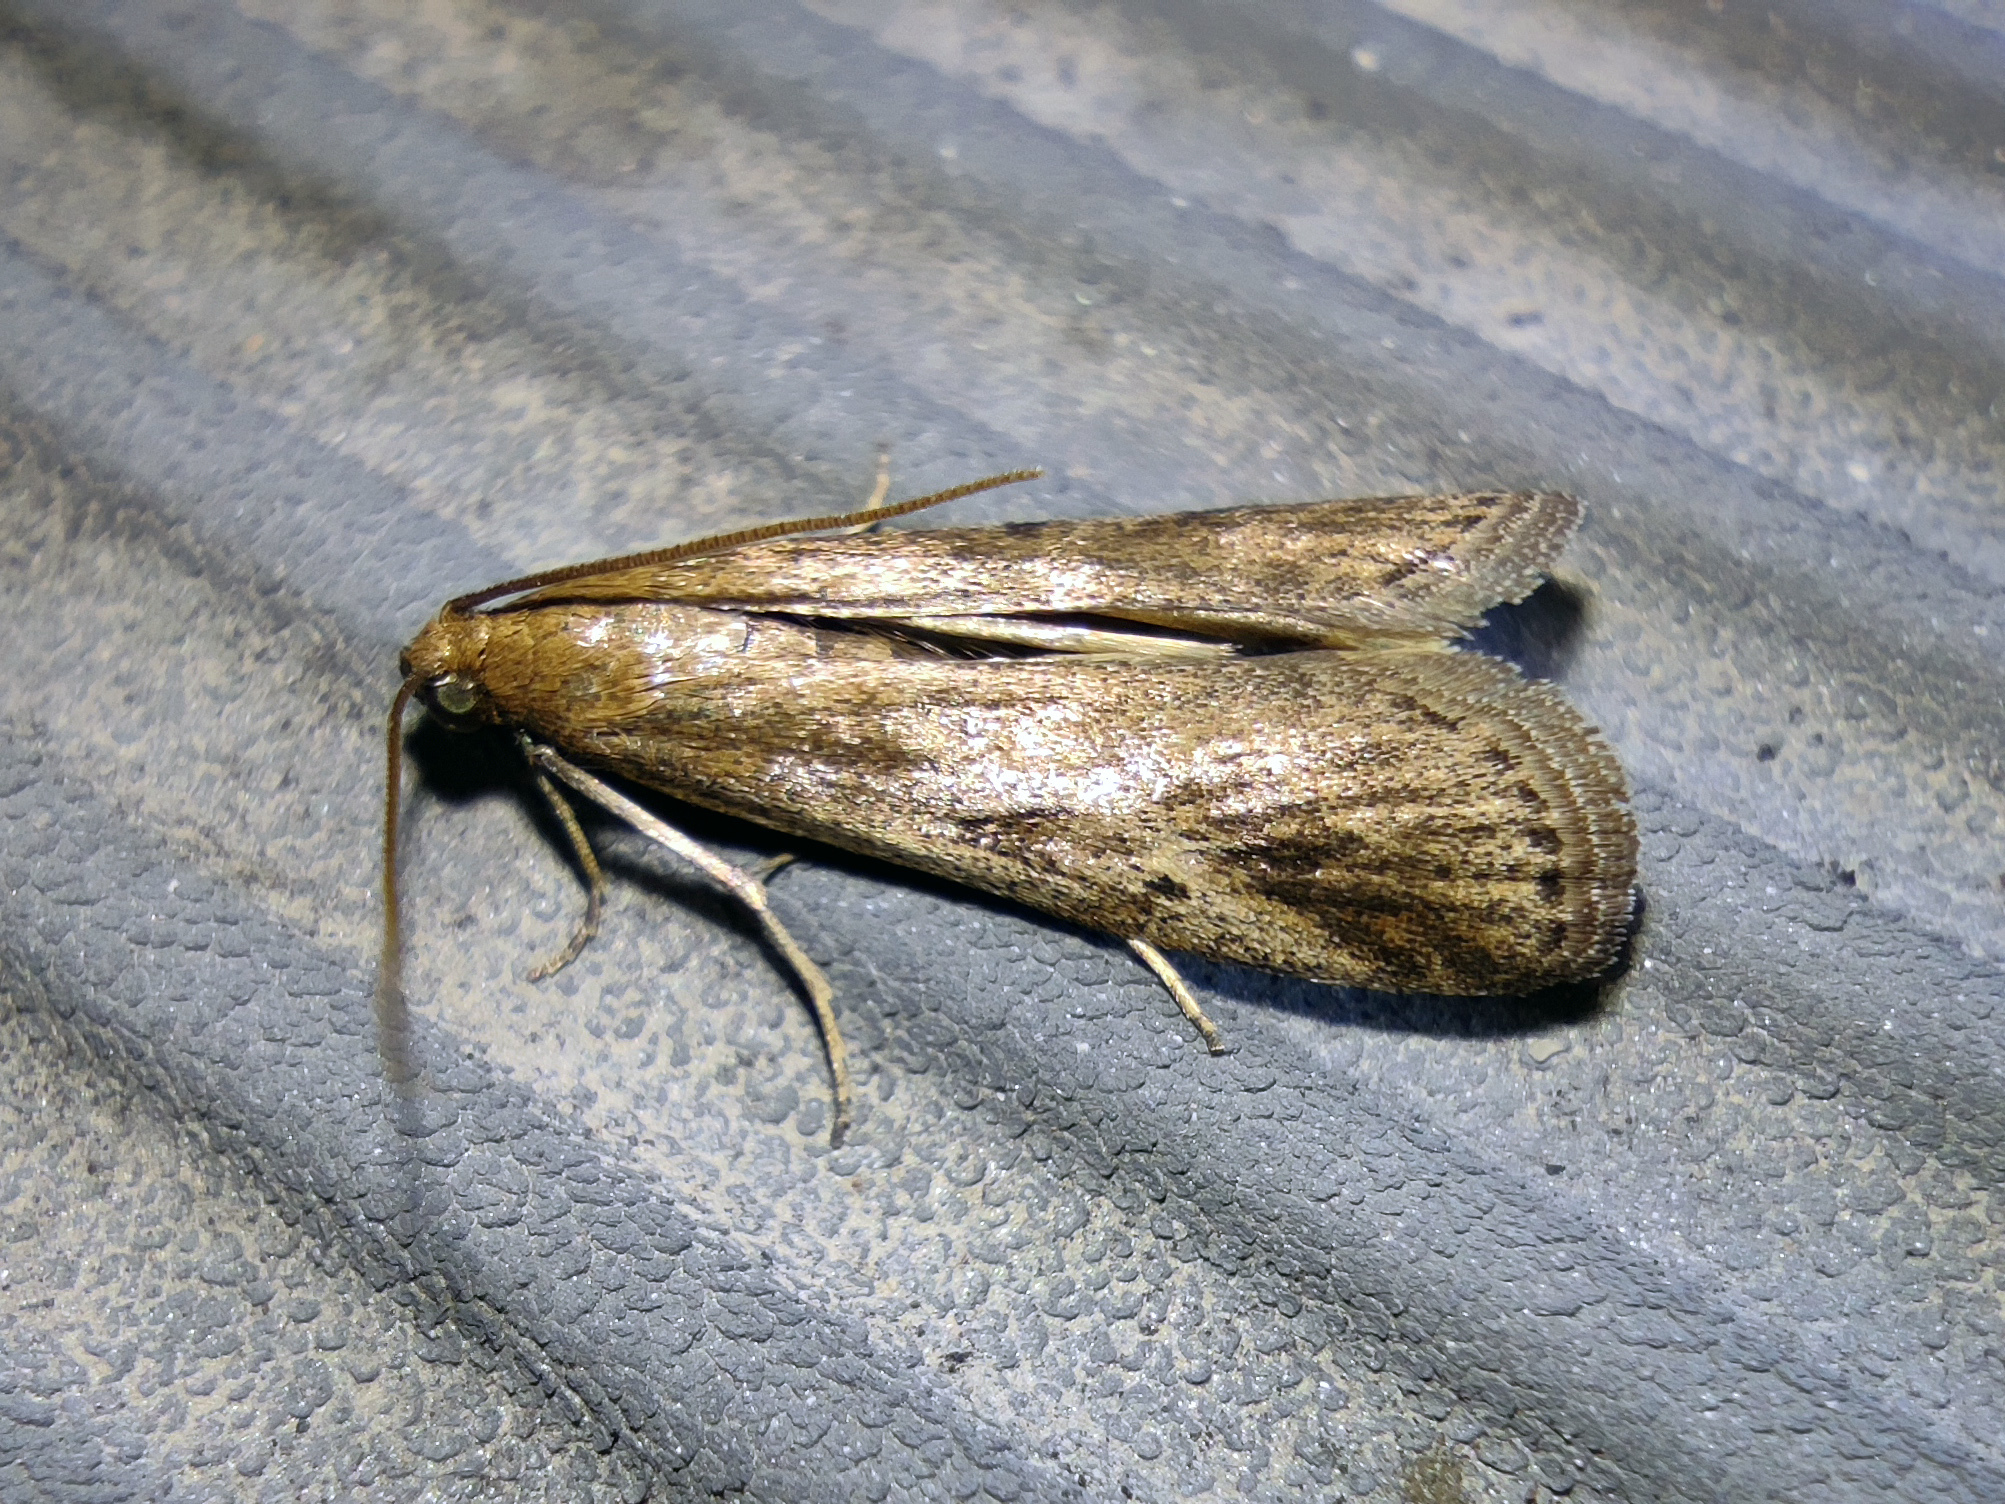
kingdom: Animalia
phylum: Arthropoda
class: Insecta
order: Lepidoptera
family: Pyralidae
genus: Euzophera
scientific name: Euzophera cinerosella
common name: Wormwood knot-horn
